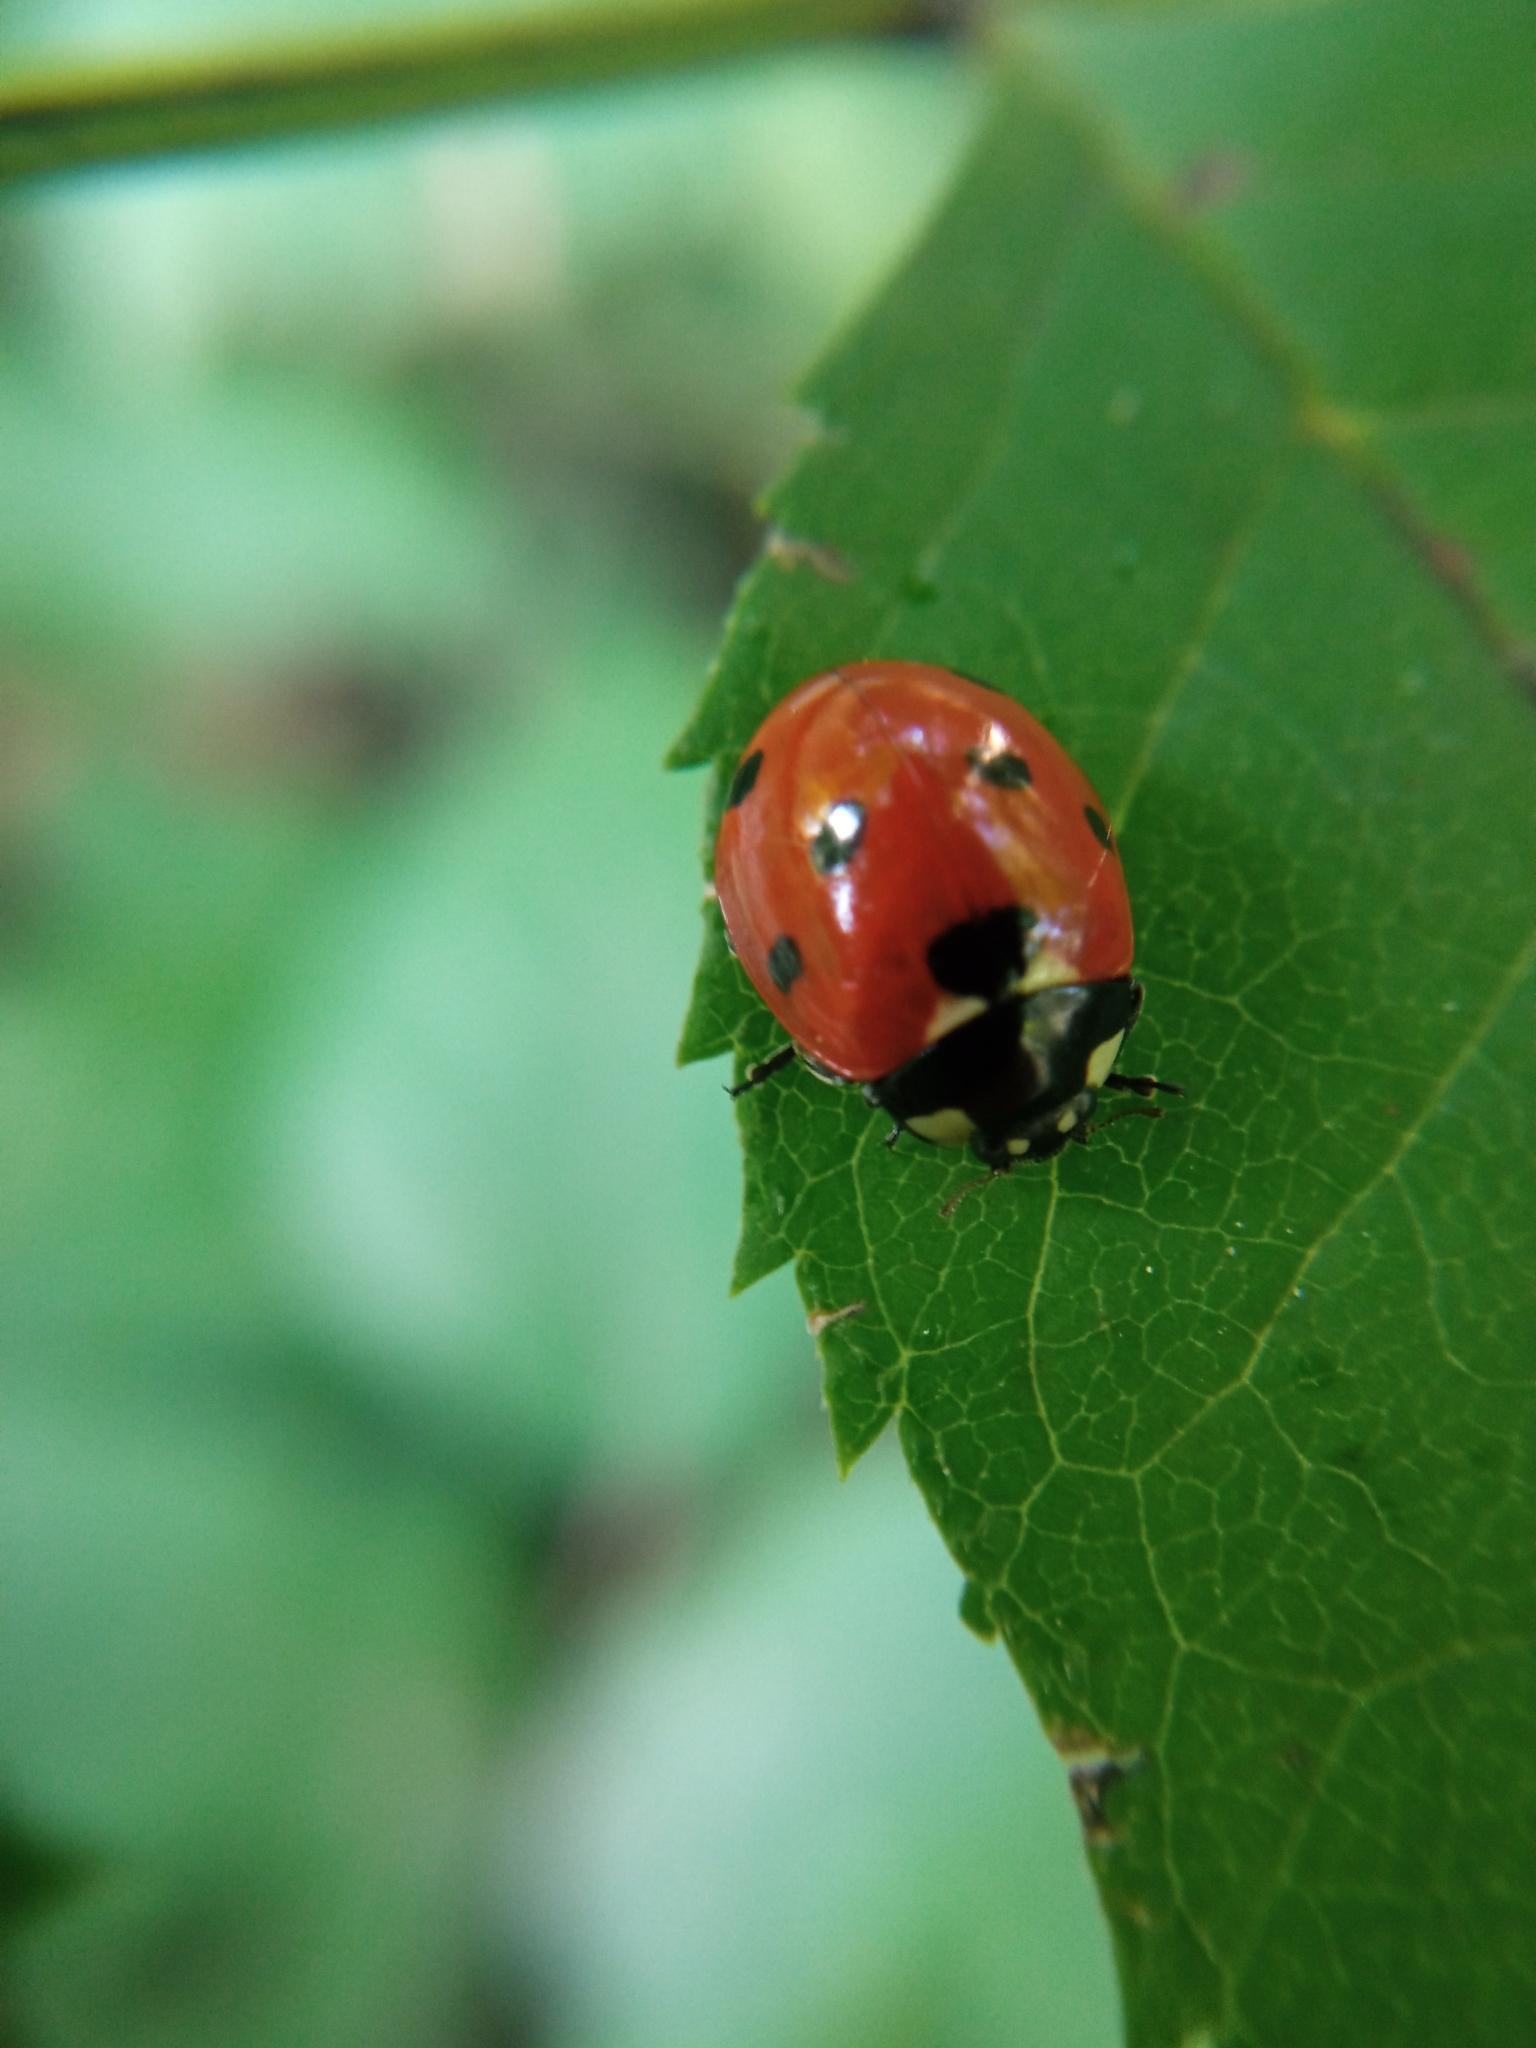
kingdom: Animalia
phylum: Arthropoda
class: Insecta
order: Coleoptera
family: Coccinellidae
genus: Coccinella
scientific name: Coccinella septempunctata
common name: Sevenspotted lady beetle
